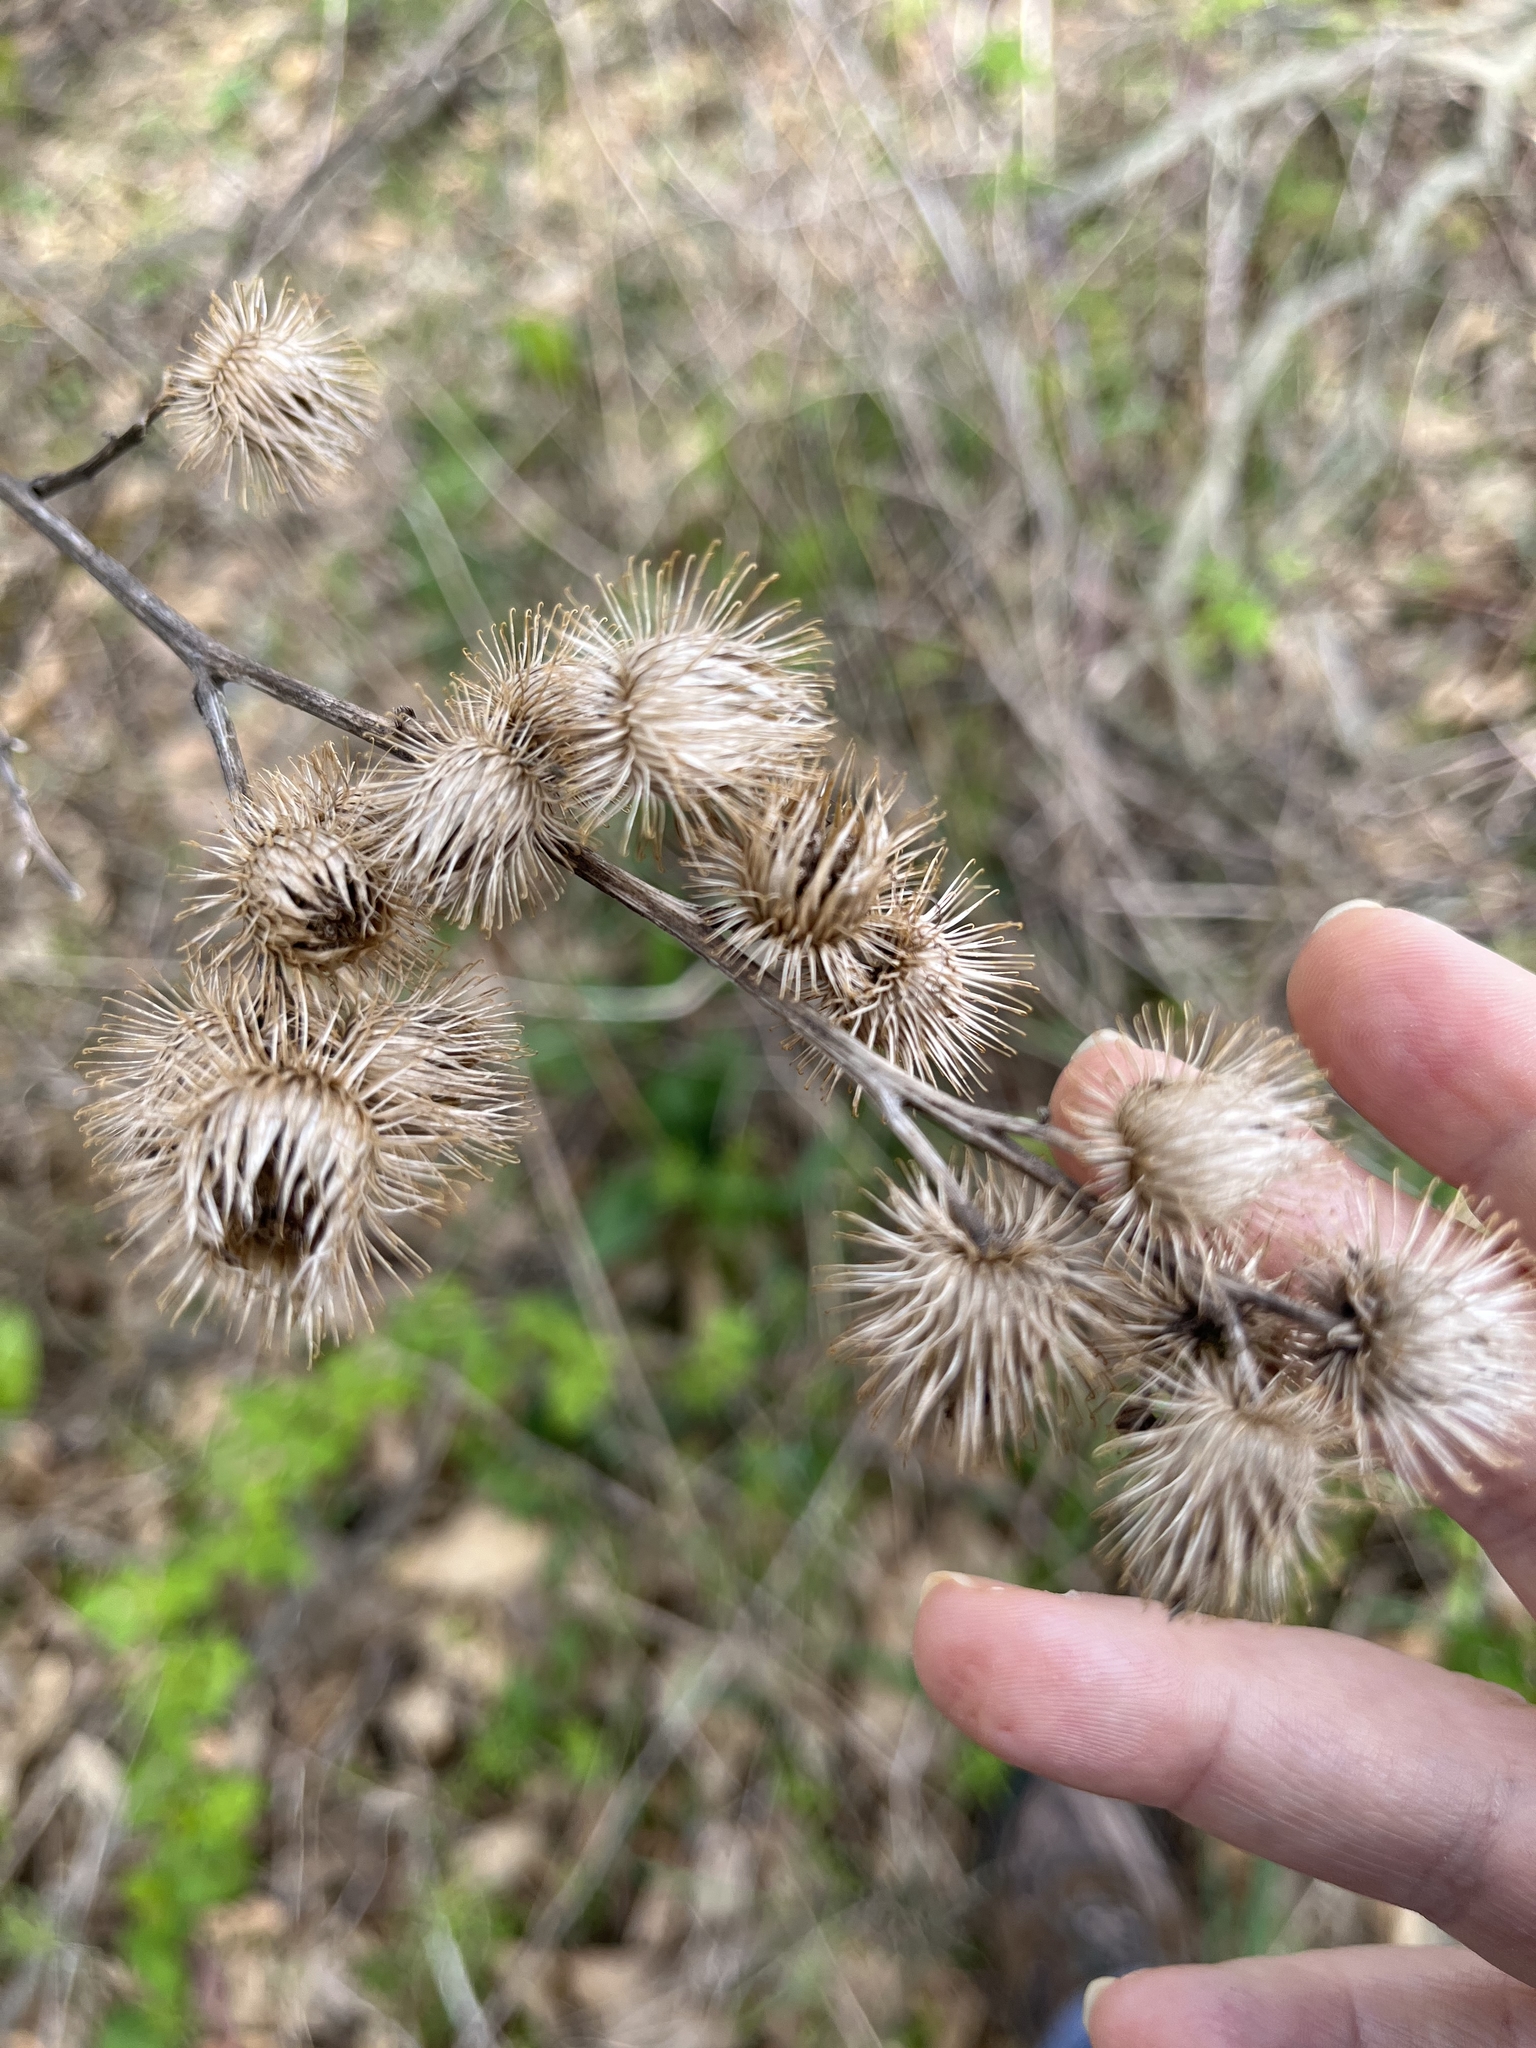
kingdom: Plantae
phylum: Tracheophyta
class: Magnoliopsida
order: Asterales
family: Asteraceae
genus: Arctium
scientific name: Arctium minus
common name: Lesser burdock
